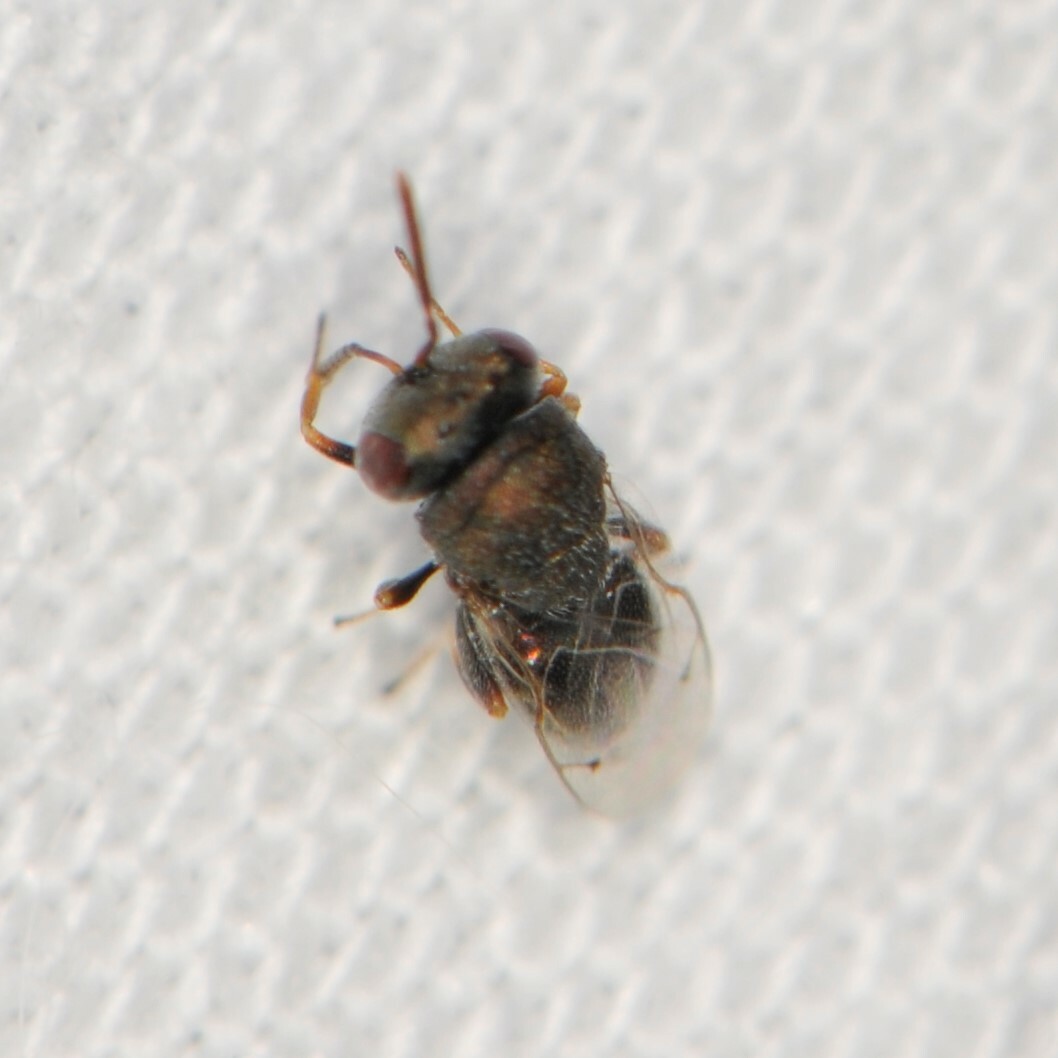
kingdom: Animalia
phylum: Arthropoda
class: Insecta
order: Hymenoptera
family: Pteromalini
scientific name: Pteromalini
